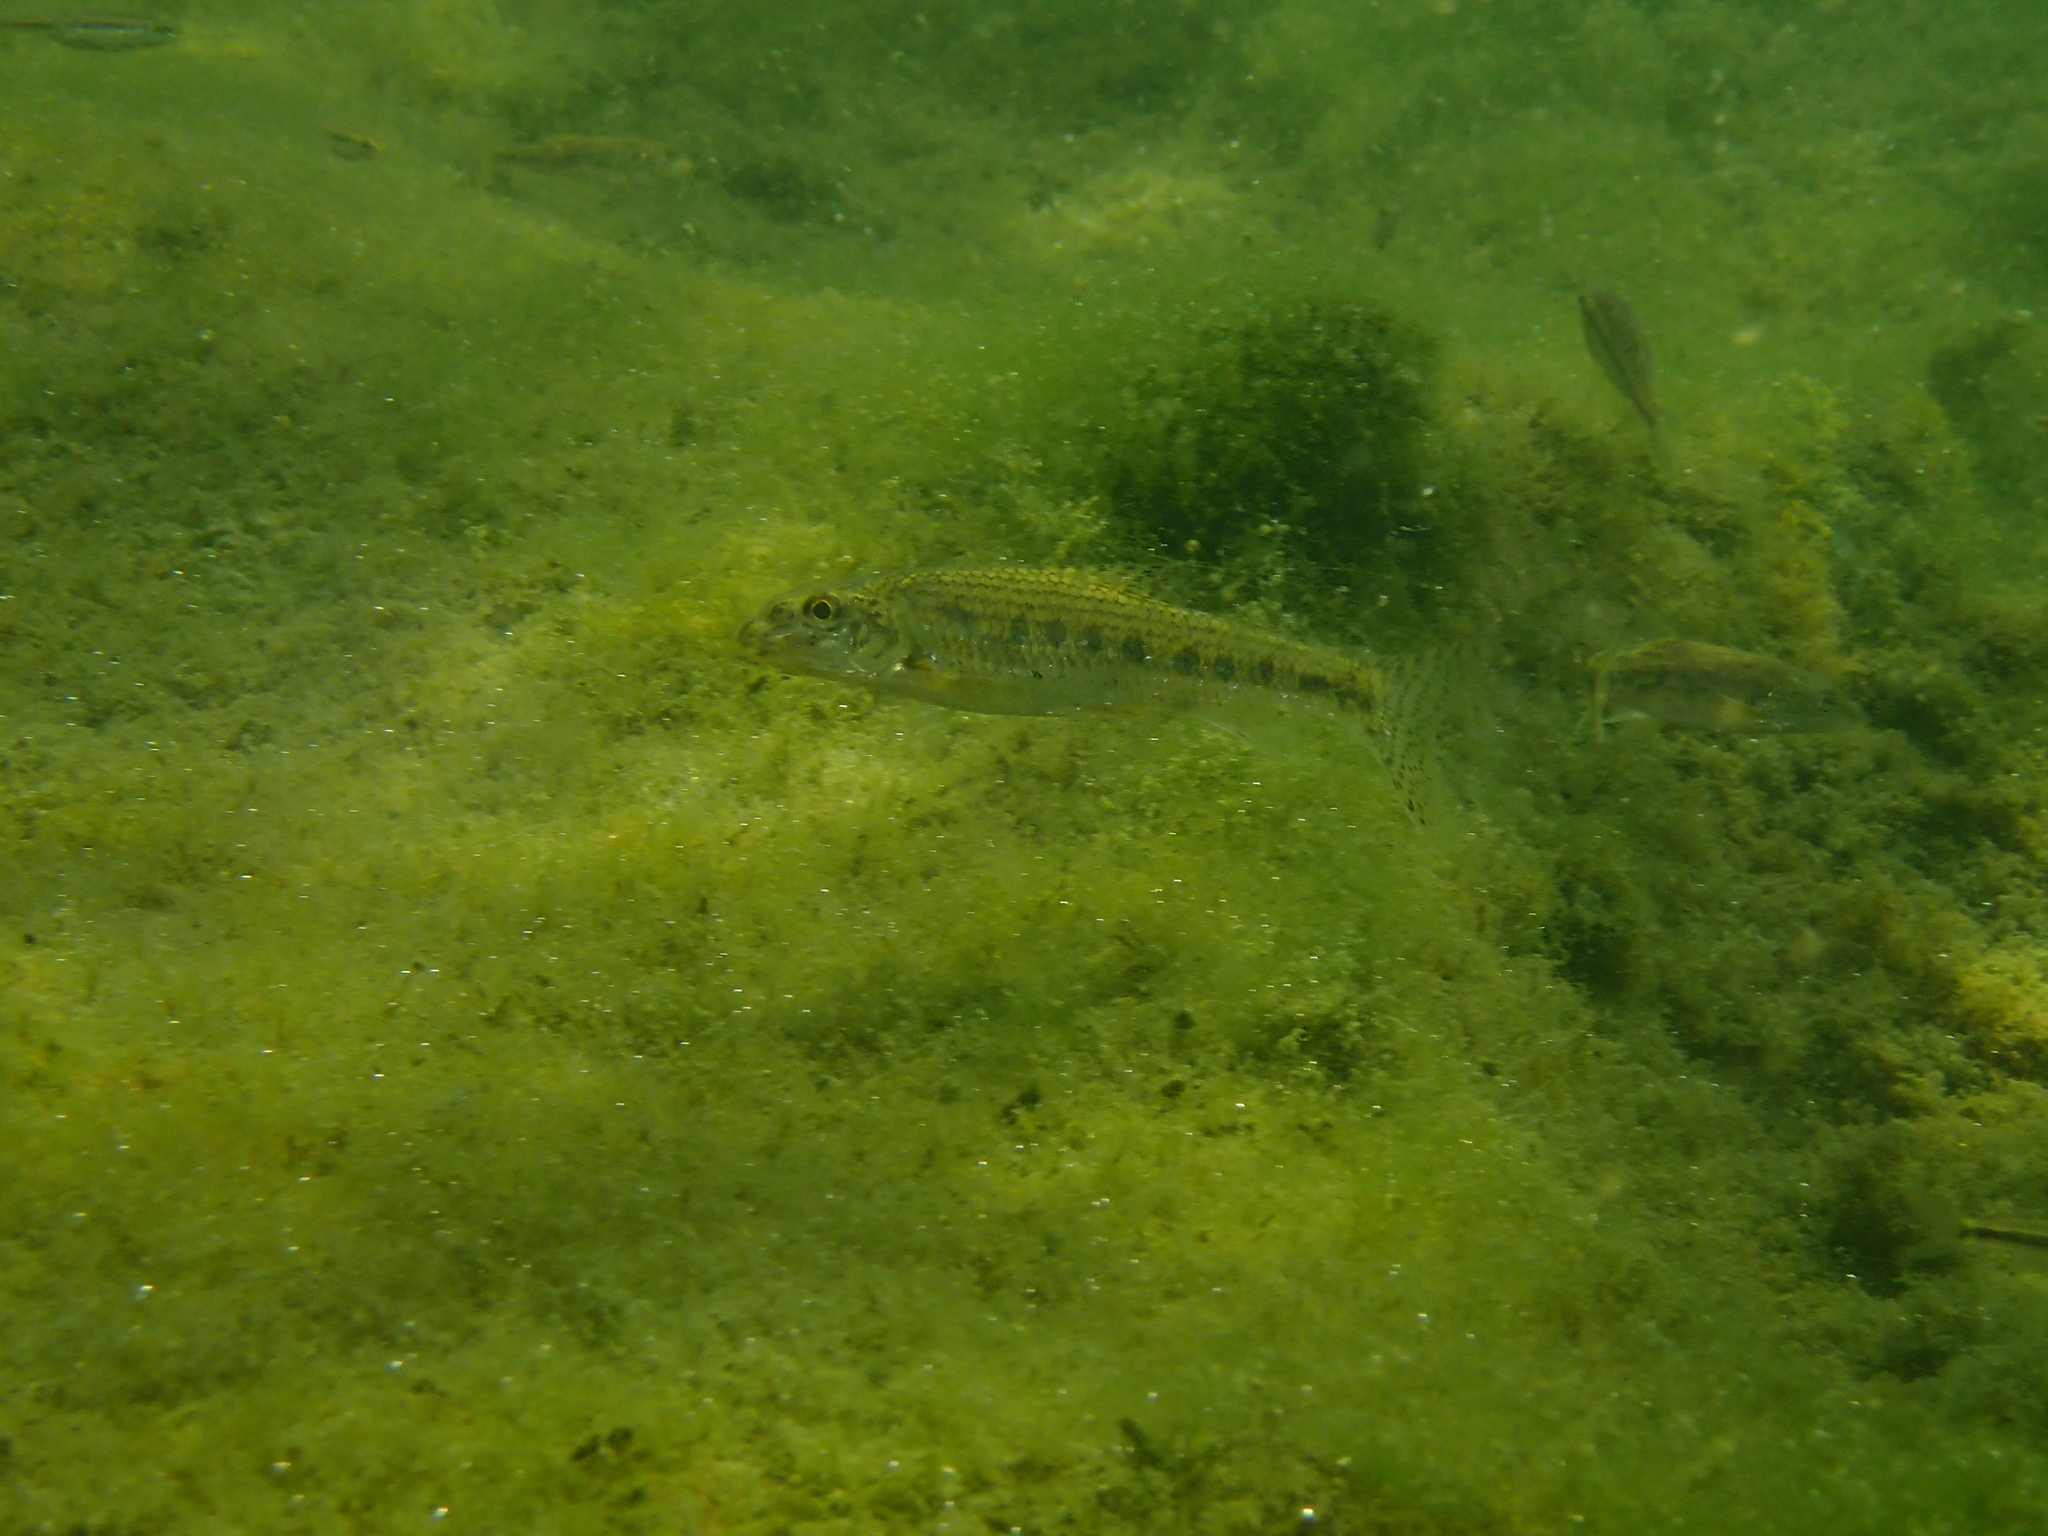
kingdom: Animalia
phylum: Chordata
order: Cypriniformes
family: Cyprinidae
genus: Gobio
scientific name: Gobio gobio
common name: Gudgeon
